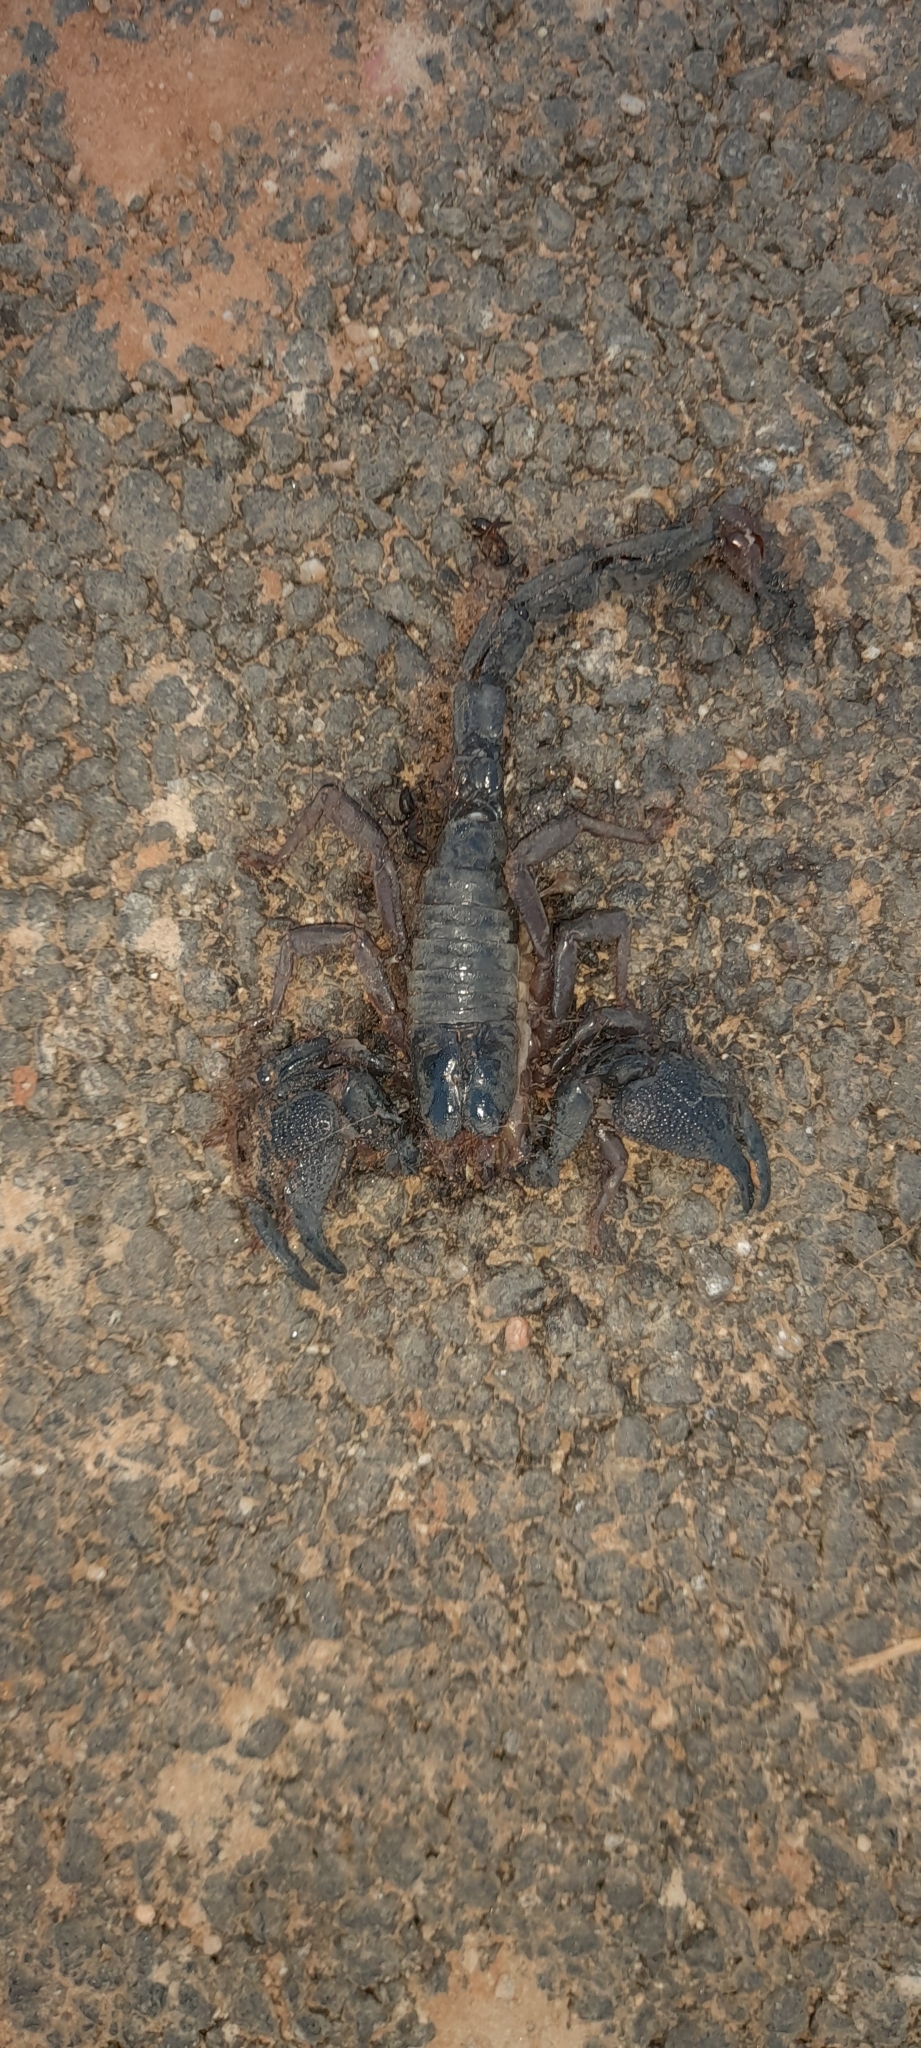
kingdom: Animalia
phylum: Arthropoda
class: Arachnida
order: Scorpiones
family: Scorpionidae
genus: Gigantometrus
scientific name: Gigantometrus swammerdami
